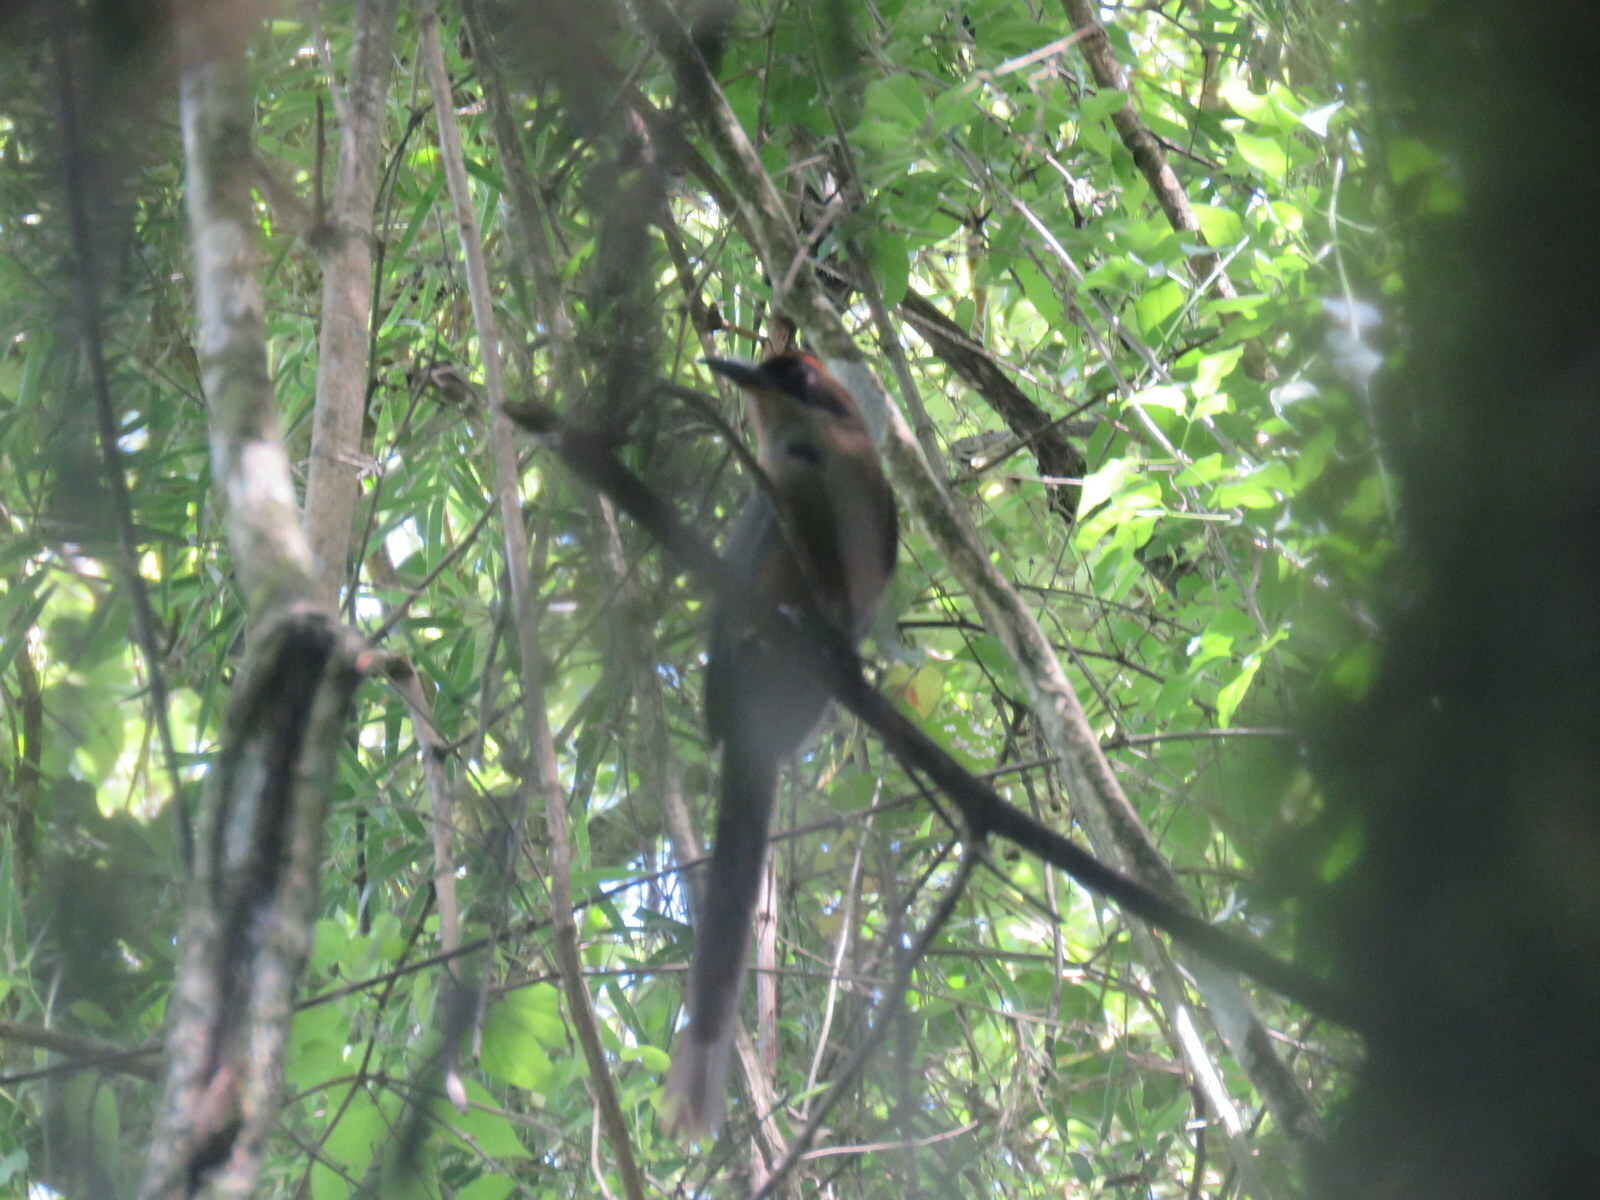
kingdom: Animalia
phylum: Chordata
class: Aves
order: Coraciiformes
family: Momotidae
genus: Baryphthengus
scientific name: Baryphthengus ruficapillus
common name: Rufous-capped motmot
